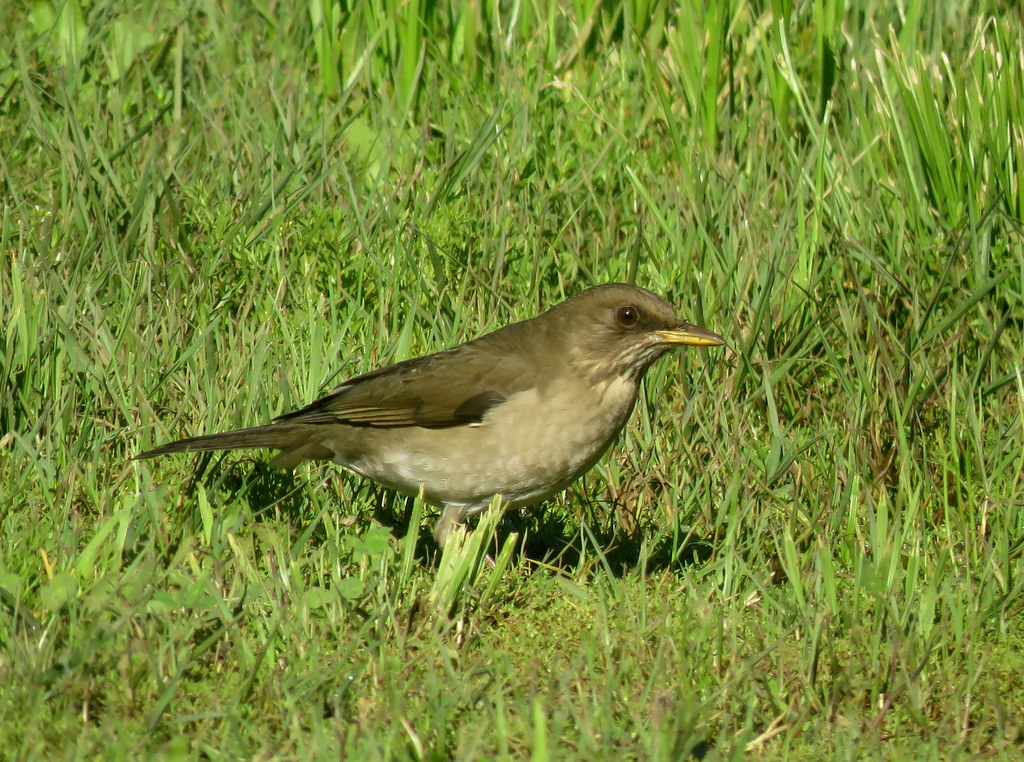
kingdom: Animalia
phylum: Chordata
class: Aves
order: Passeriformes
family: Turdidae
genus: Turdus
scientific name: Turdus amaurochalinus
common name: Creamy-bellied thrush
